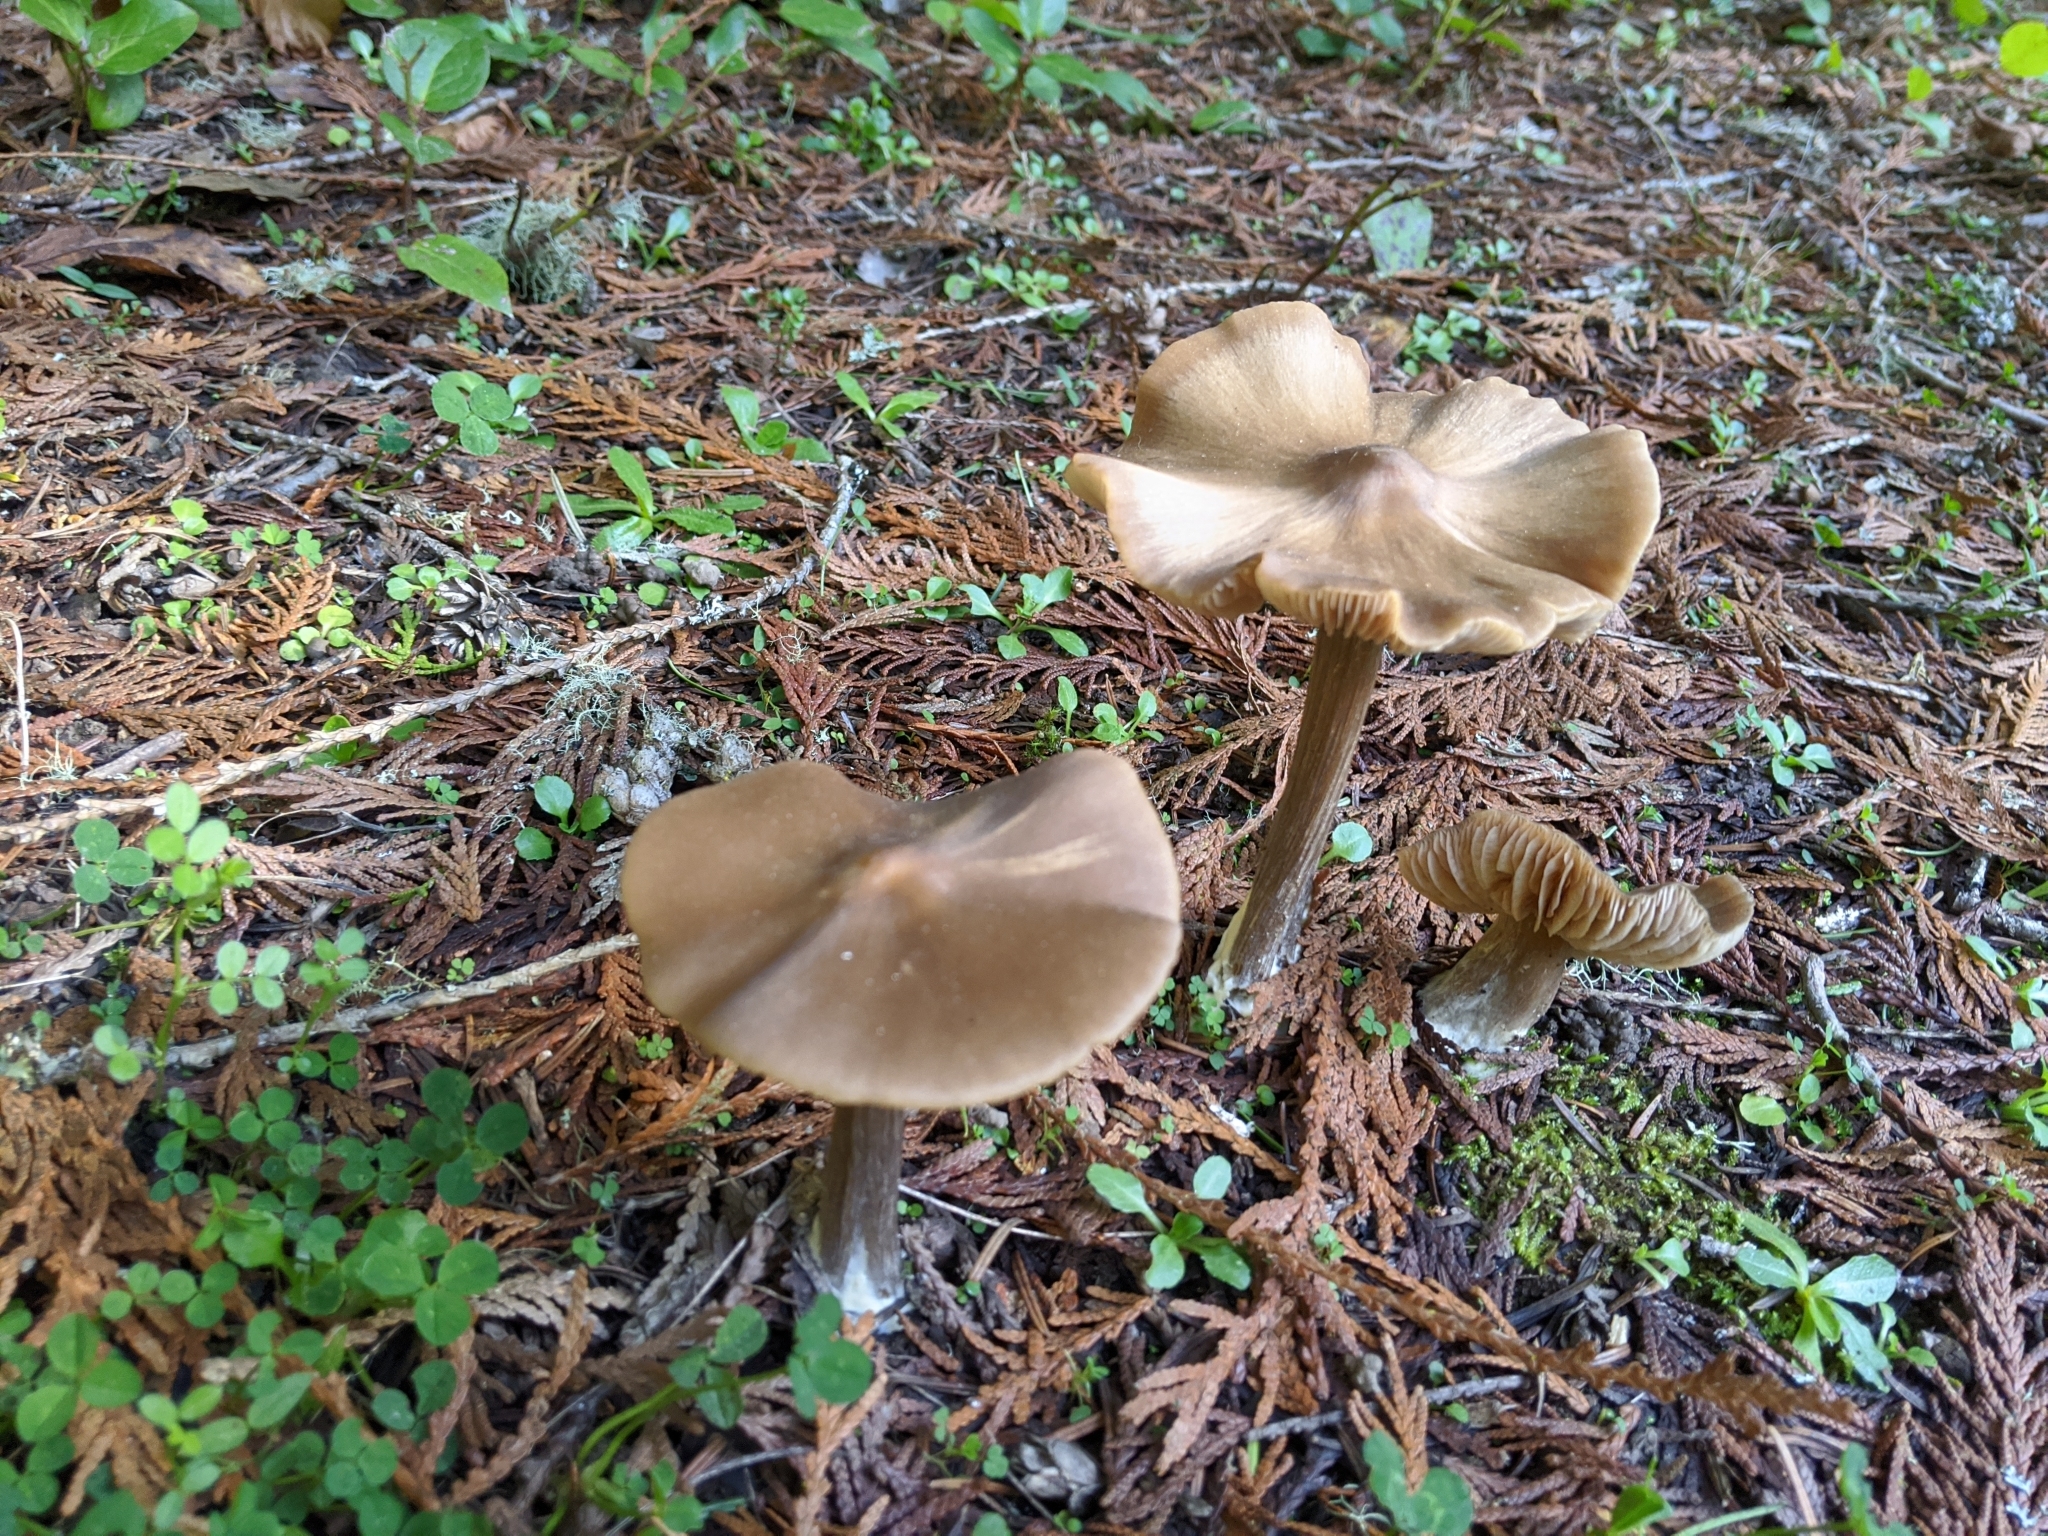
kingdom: Fungi
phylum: Basidiomycota
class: Agaricomycetes
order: Agaricales
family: Entolomataceae
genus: Entoloma
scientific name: Entoloma sericeum
